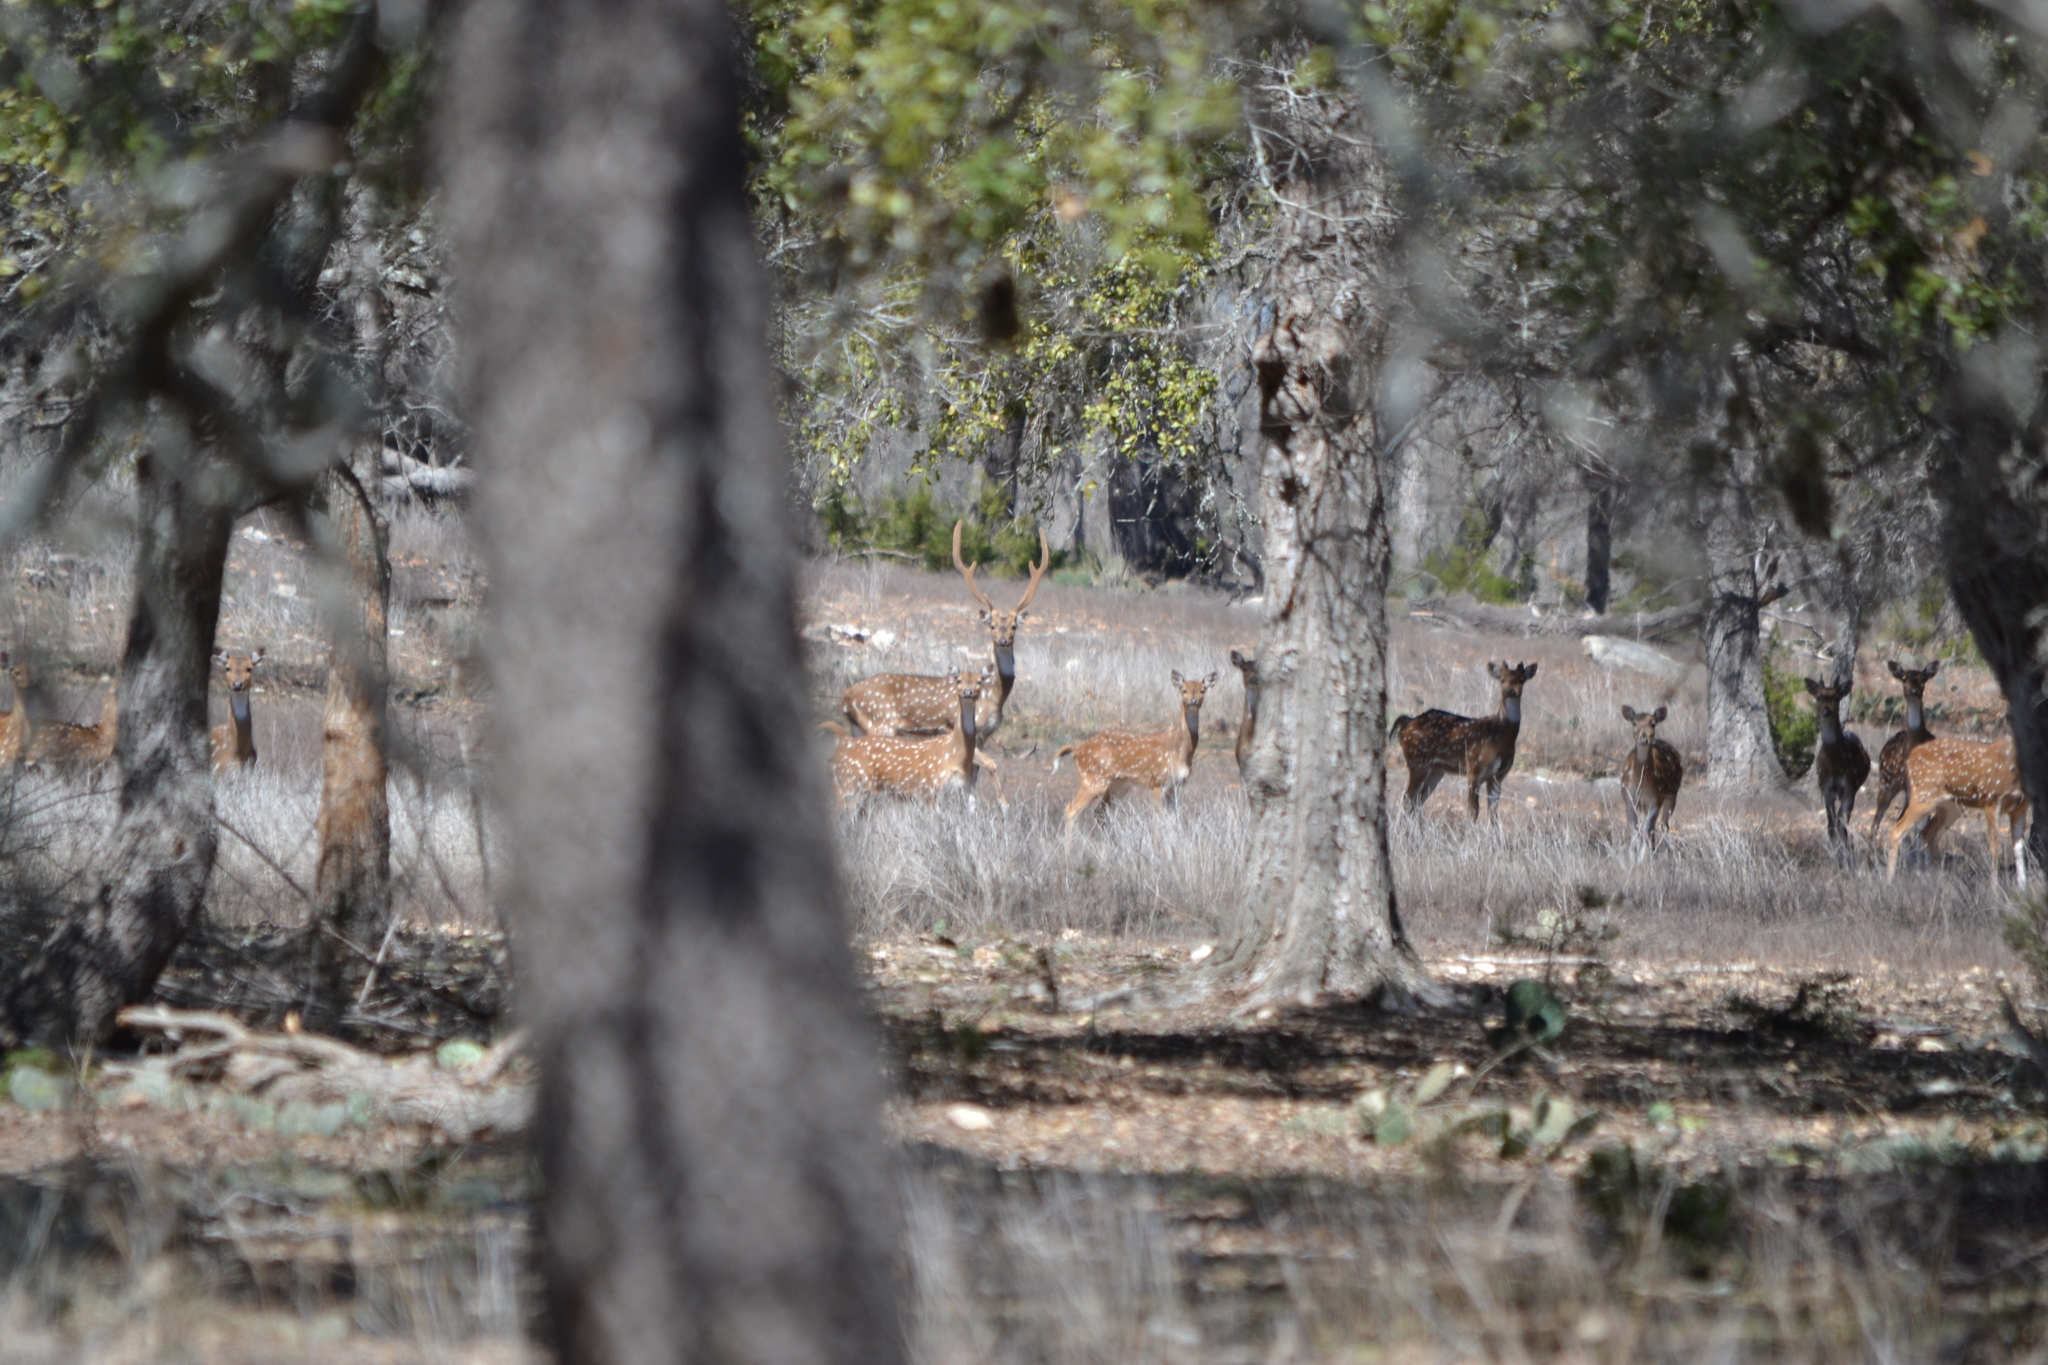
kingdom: Animalia
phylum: Chordata
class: Mammalia
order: Artiodactyla
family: Cervidae
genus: Axis
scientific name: Axis axis
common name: Chital
